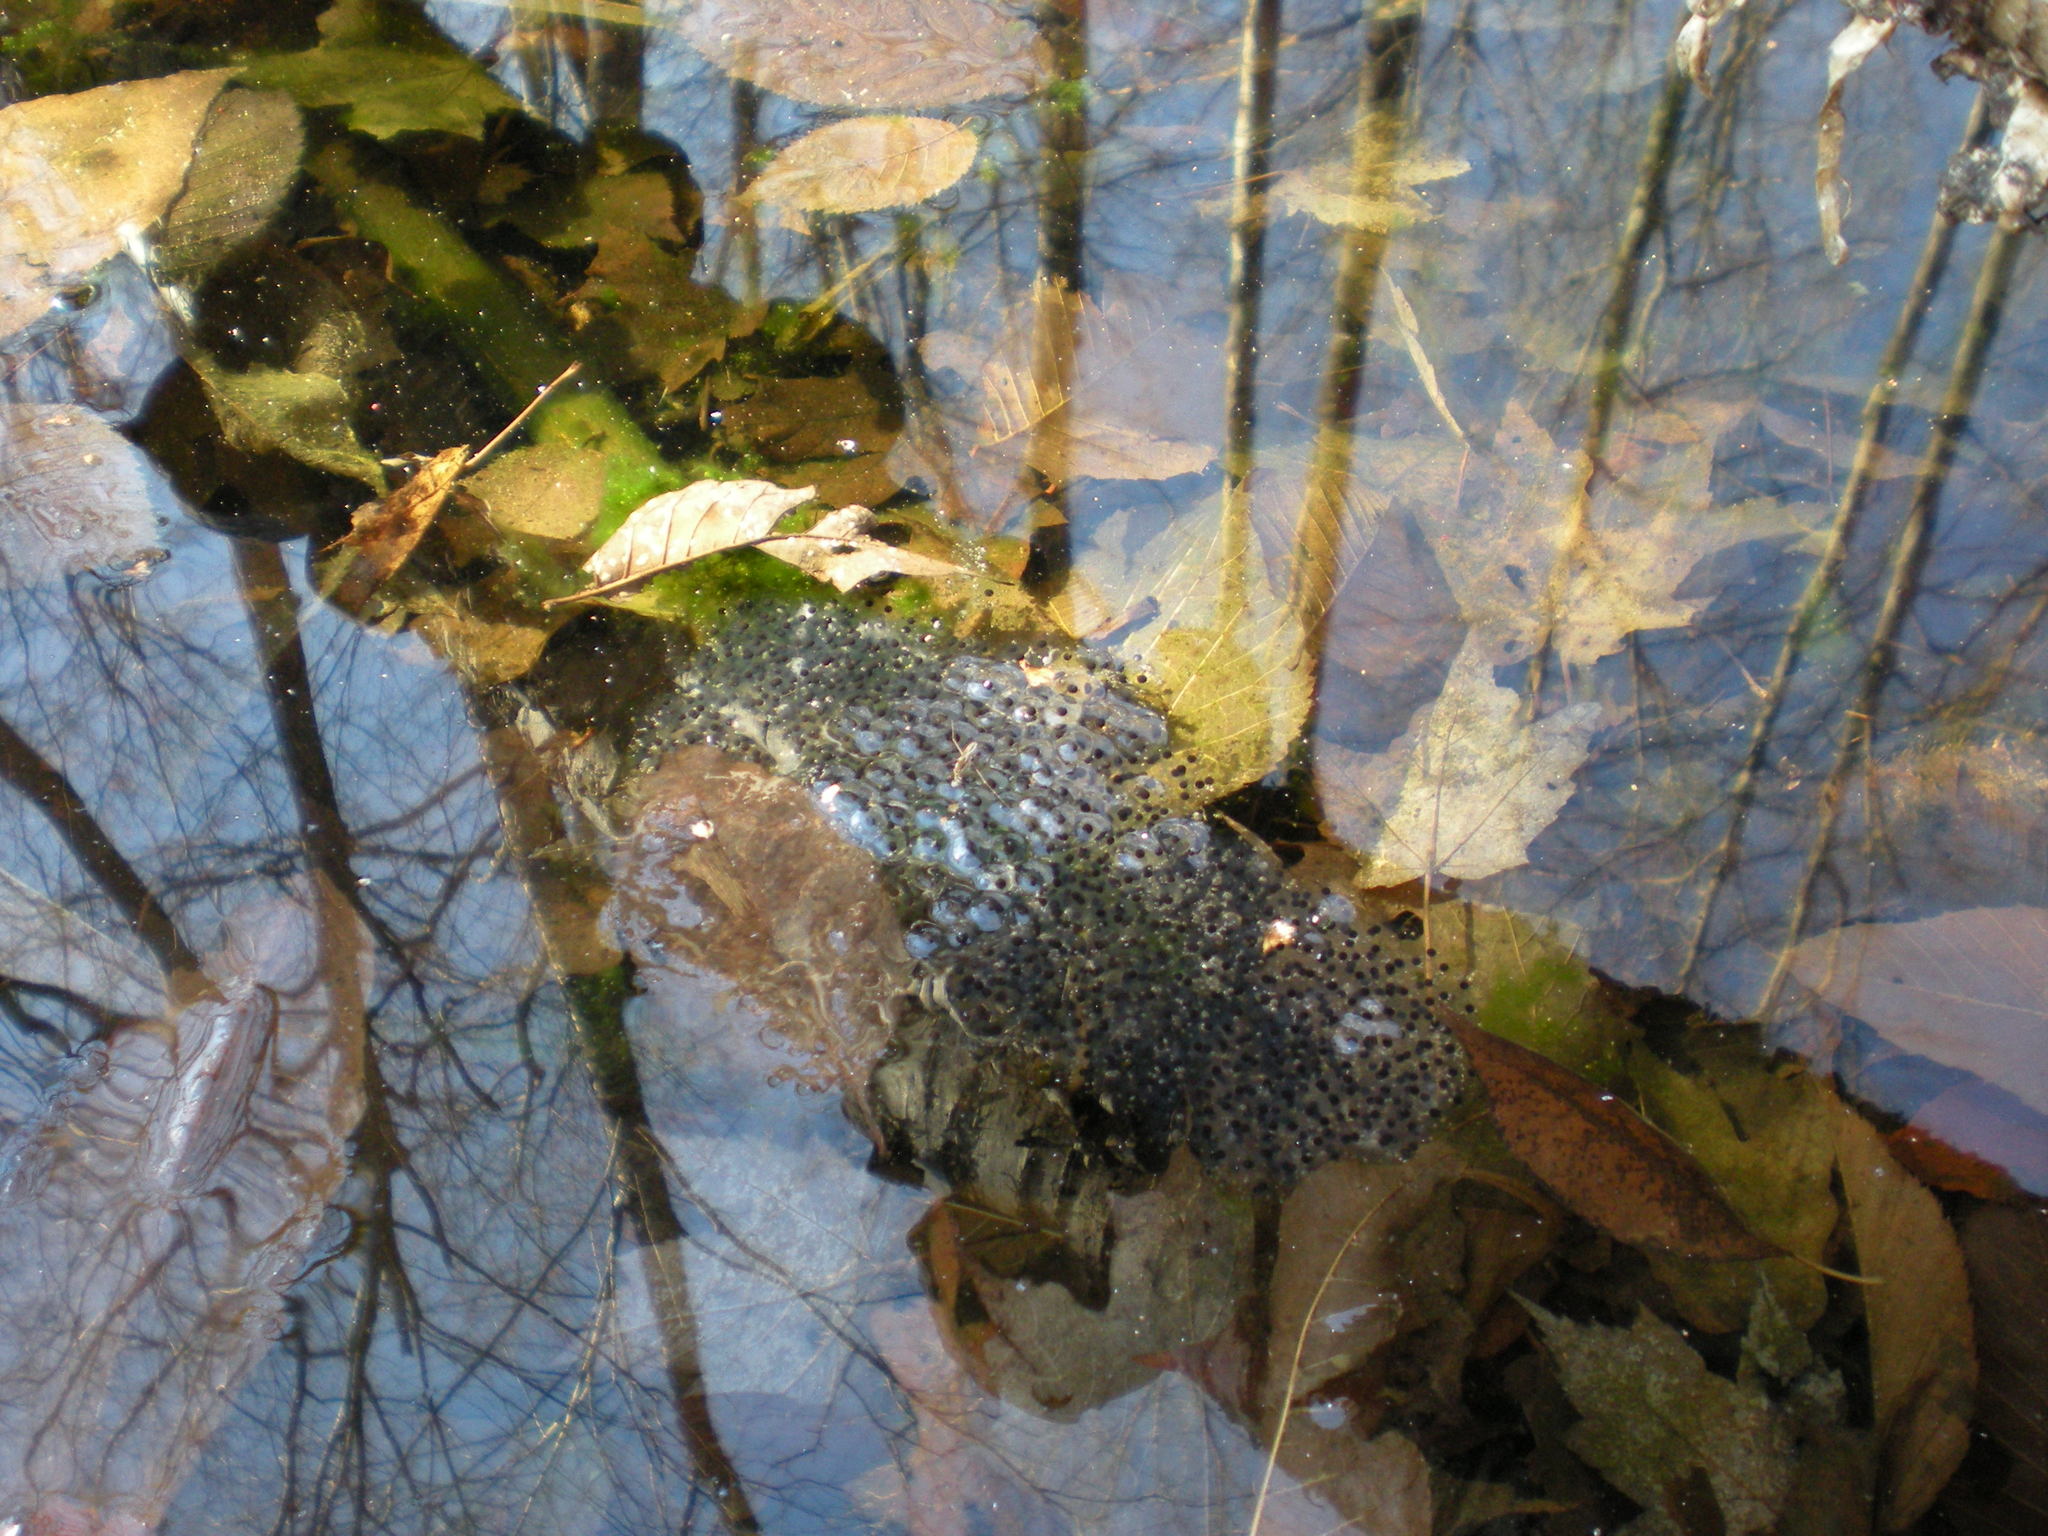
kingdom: Animalia
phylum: Chordata
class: Amphibia
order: Anura
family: Ranidae
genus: Lithobates
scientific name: Lithobates sylvaticus
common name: Wood frog
